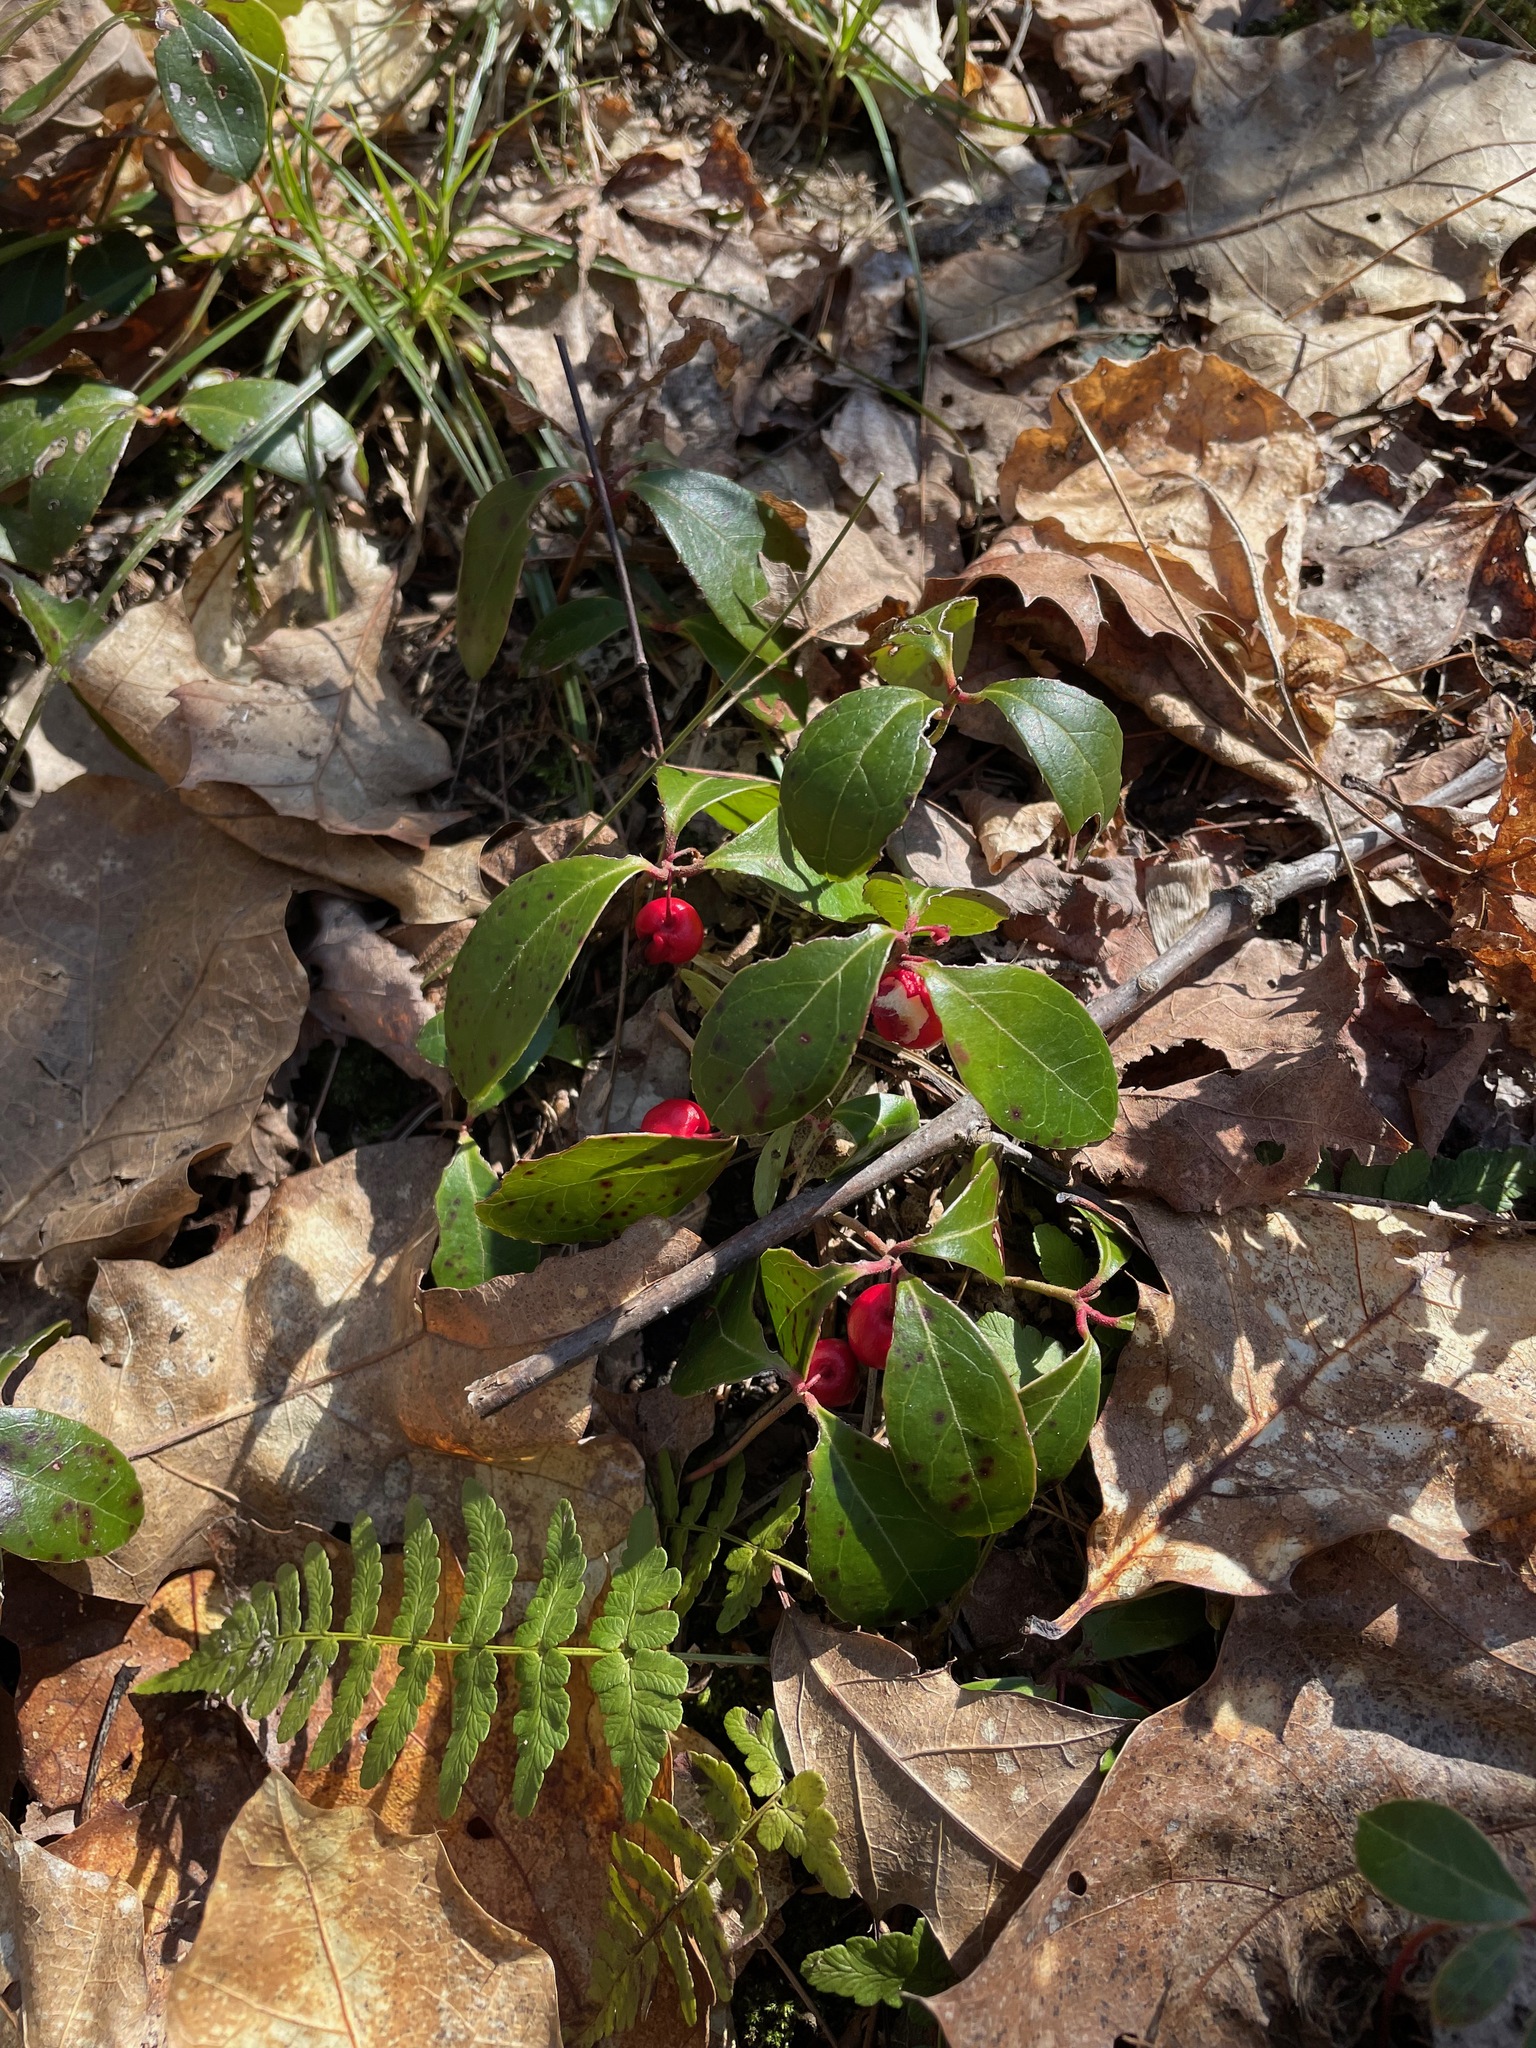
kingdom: Plantae
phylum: Tracheophyta
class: Magnoliopsida
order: Ericales
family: Ericaceae
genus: Gaultheria
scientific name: Gaultheria procumbens
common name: Checkerberry
